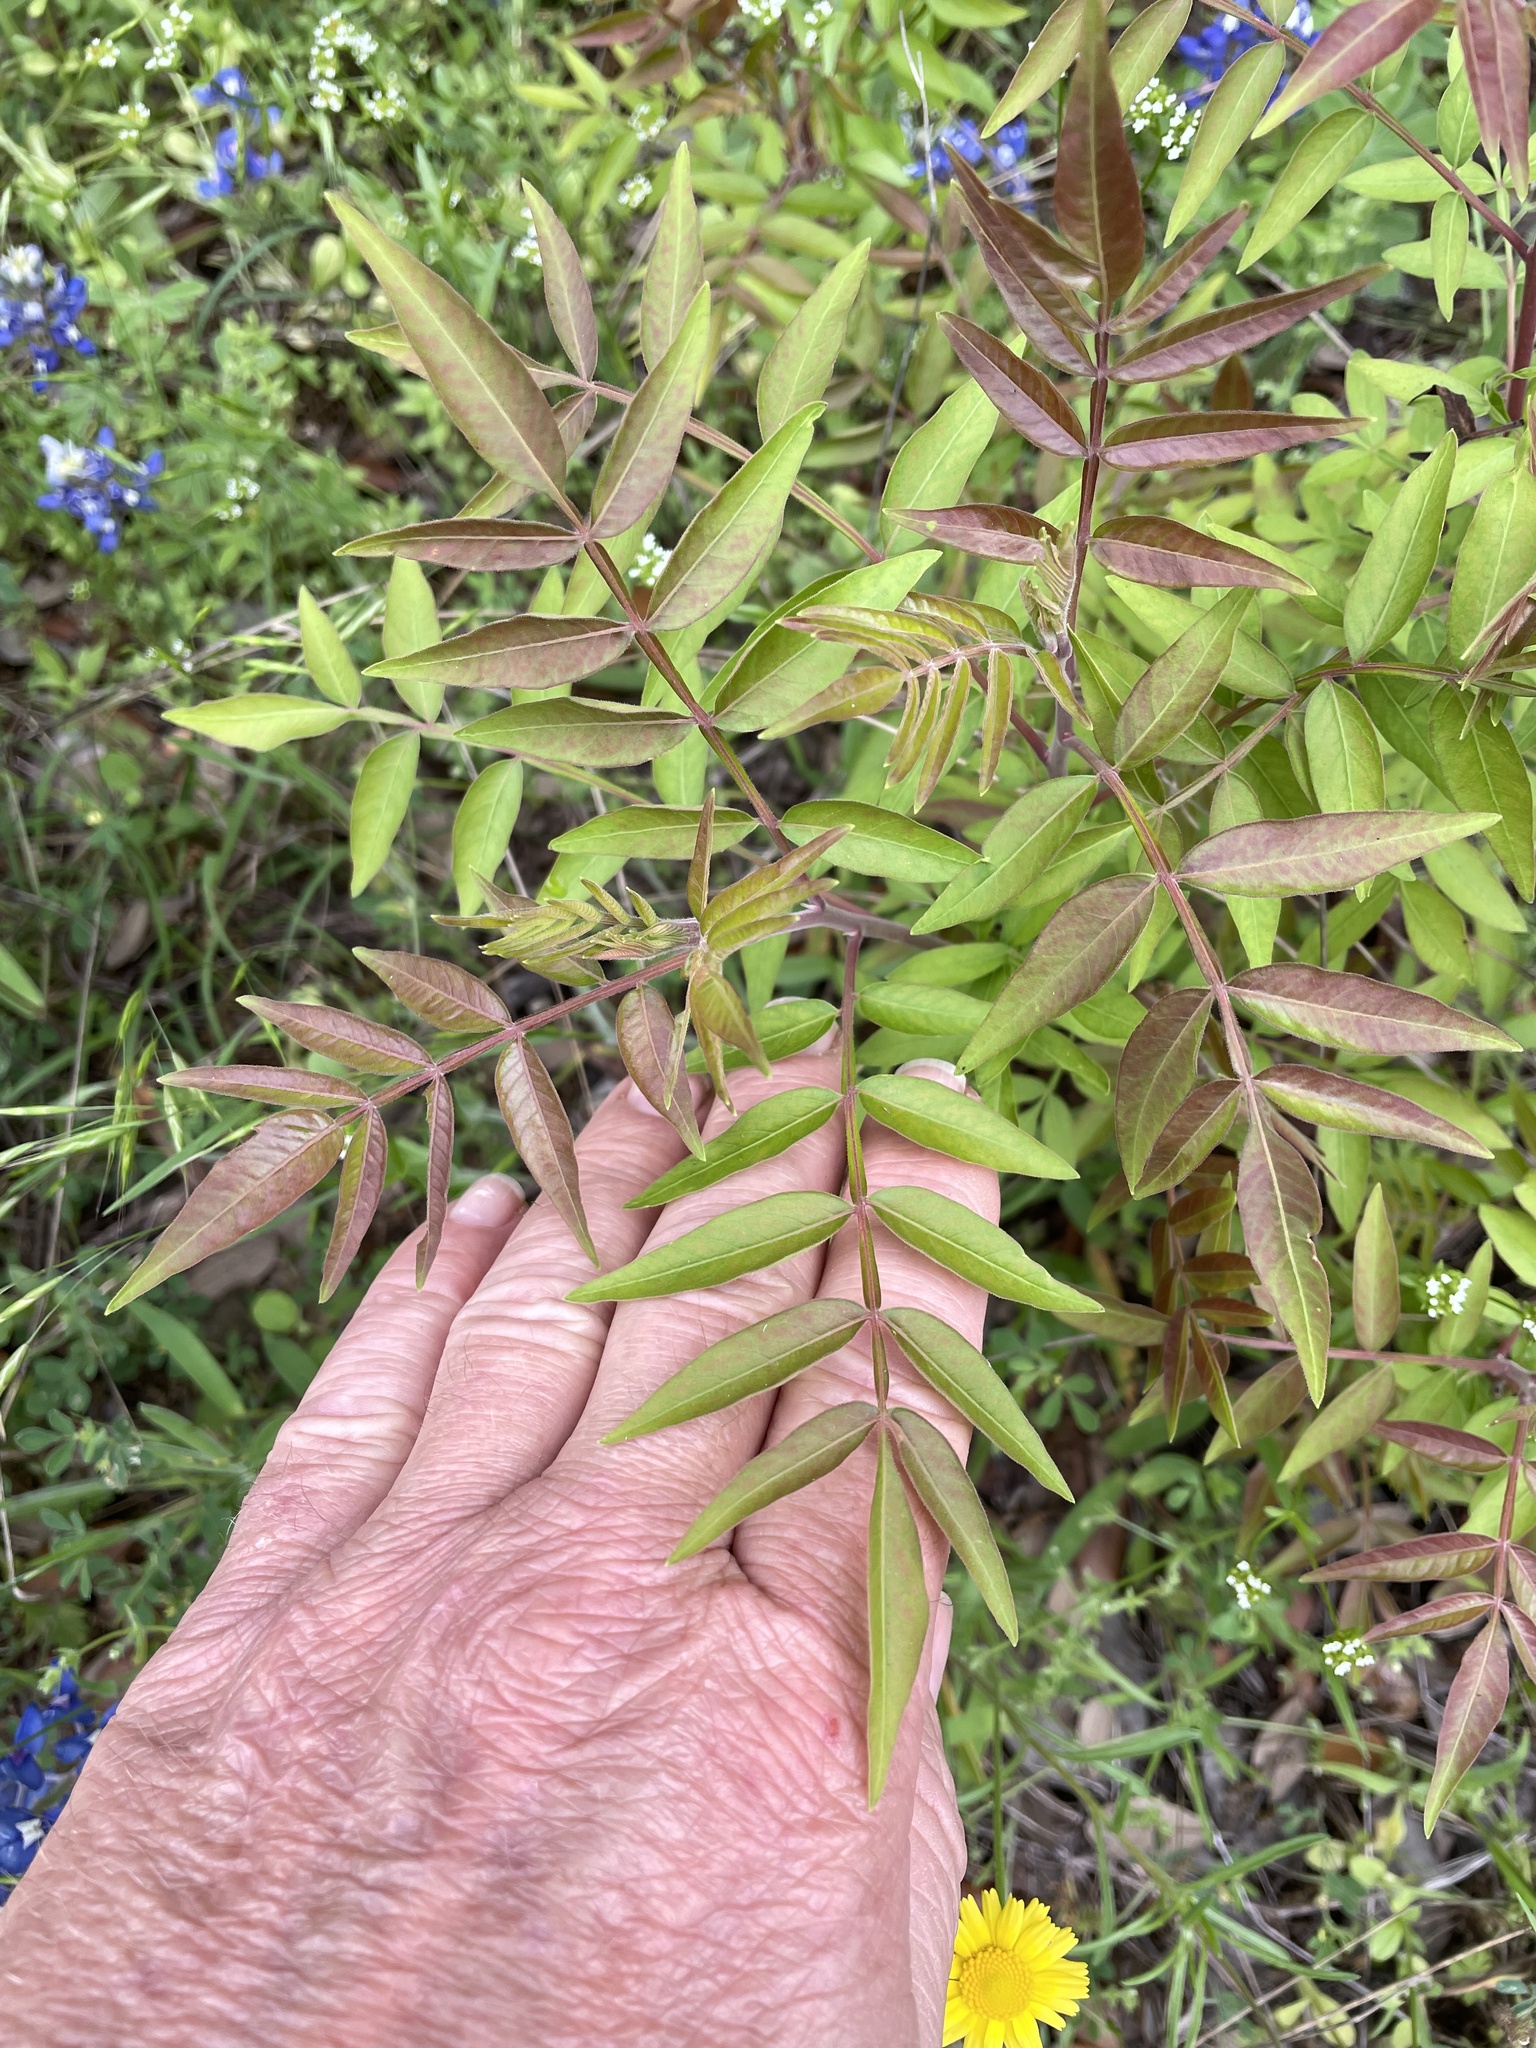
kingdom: Plantae
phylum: Tracheophyta
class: Magnoliopsida
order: Sapindales
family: Anacardiaceae
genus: Rhus
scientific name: Rhus lanceolata
